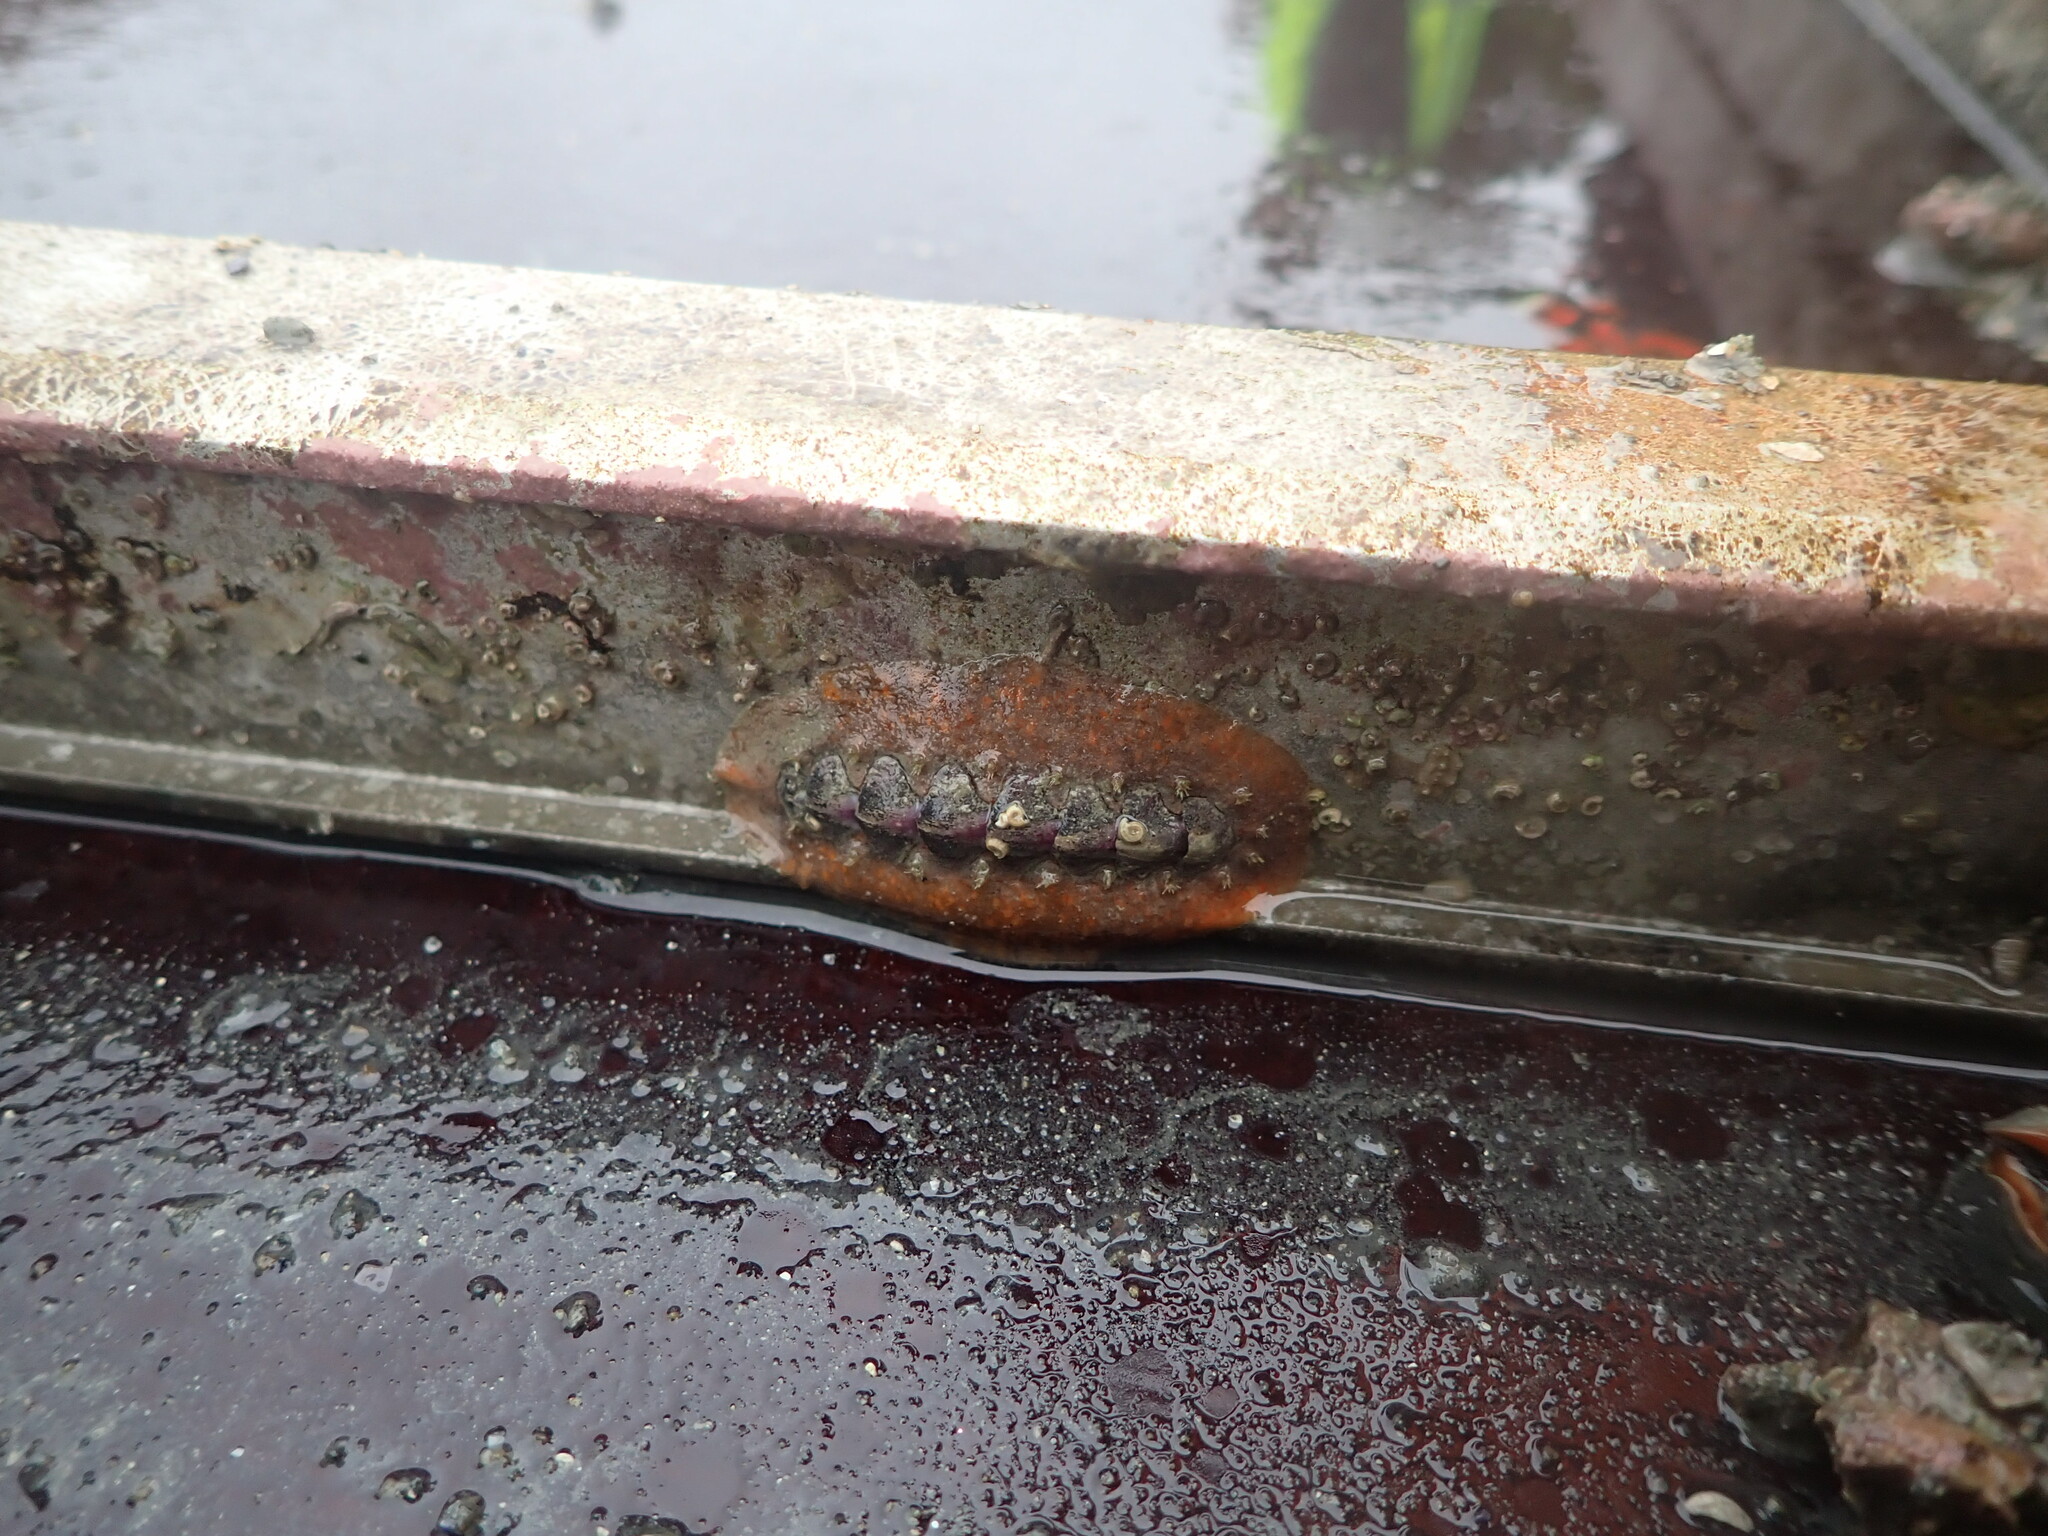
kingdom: Animalia
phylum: Mollusca
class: Polyplacophora
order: Chitonida
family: Acanthochitonidae
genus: Notoplax
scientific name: Notoplax violacea
